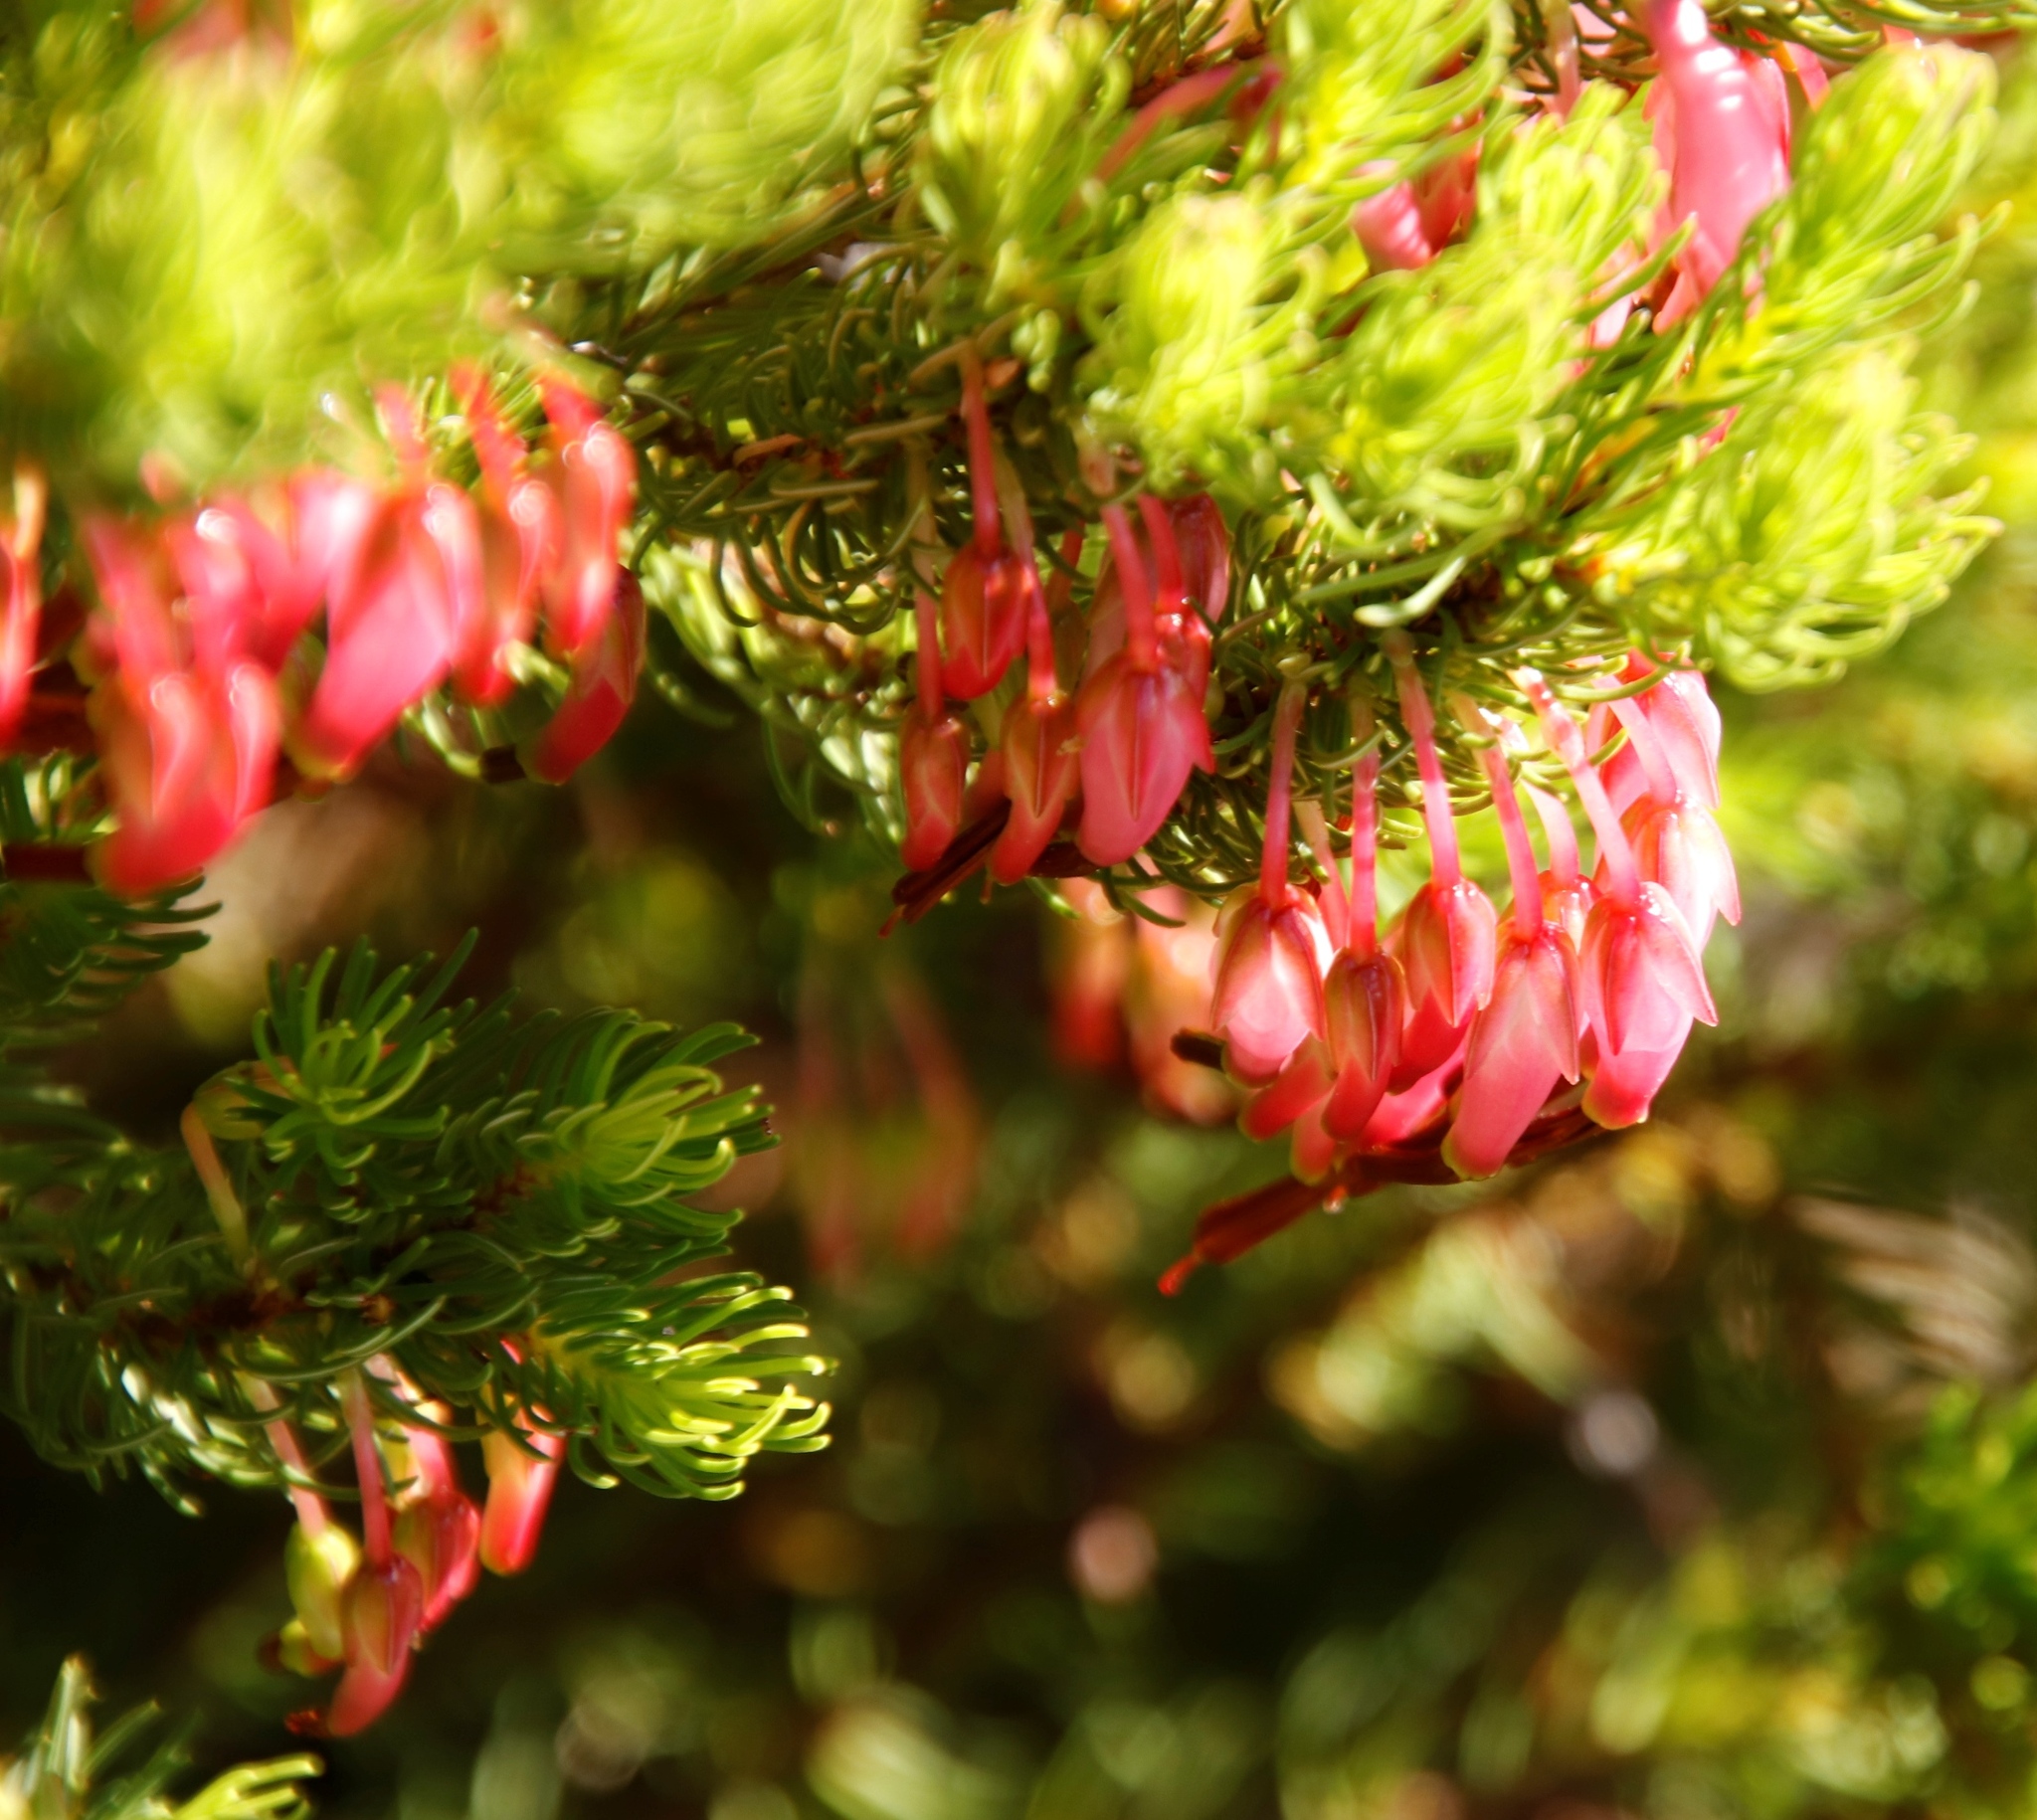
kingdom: Plantae
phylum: Tracheophyta
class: Magnoliopsida
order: Ericales
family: Ericaceae
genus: Erica
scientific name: Erica plukenetii
